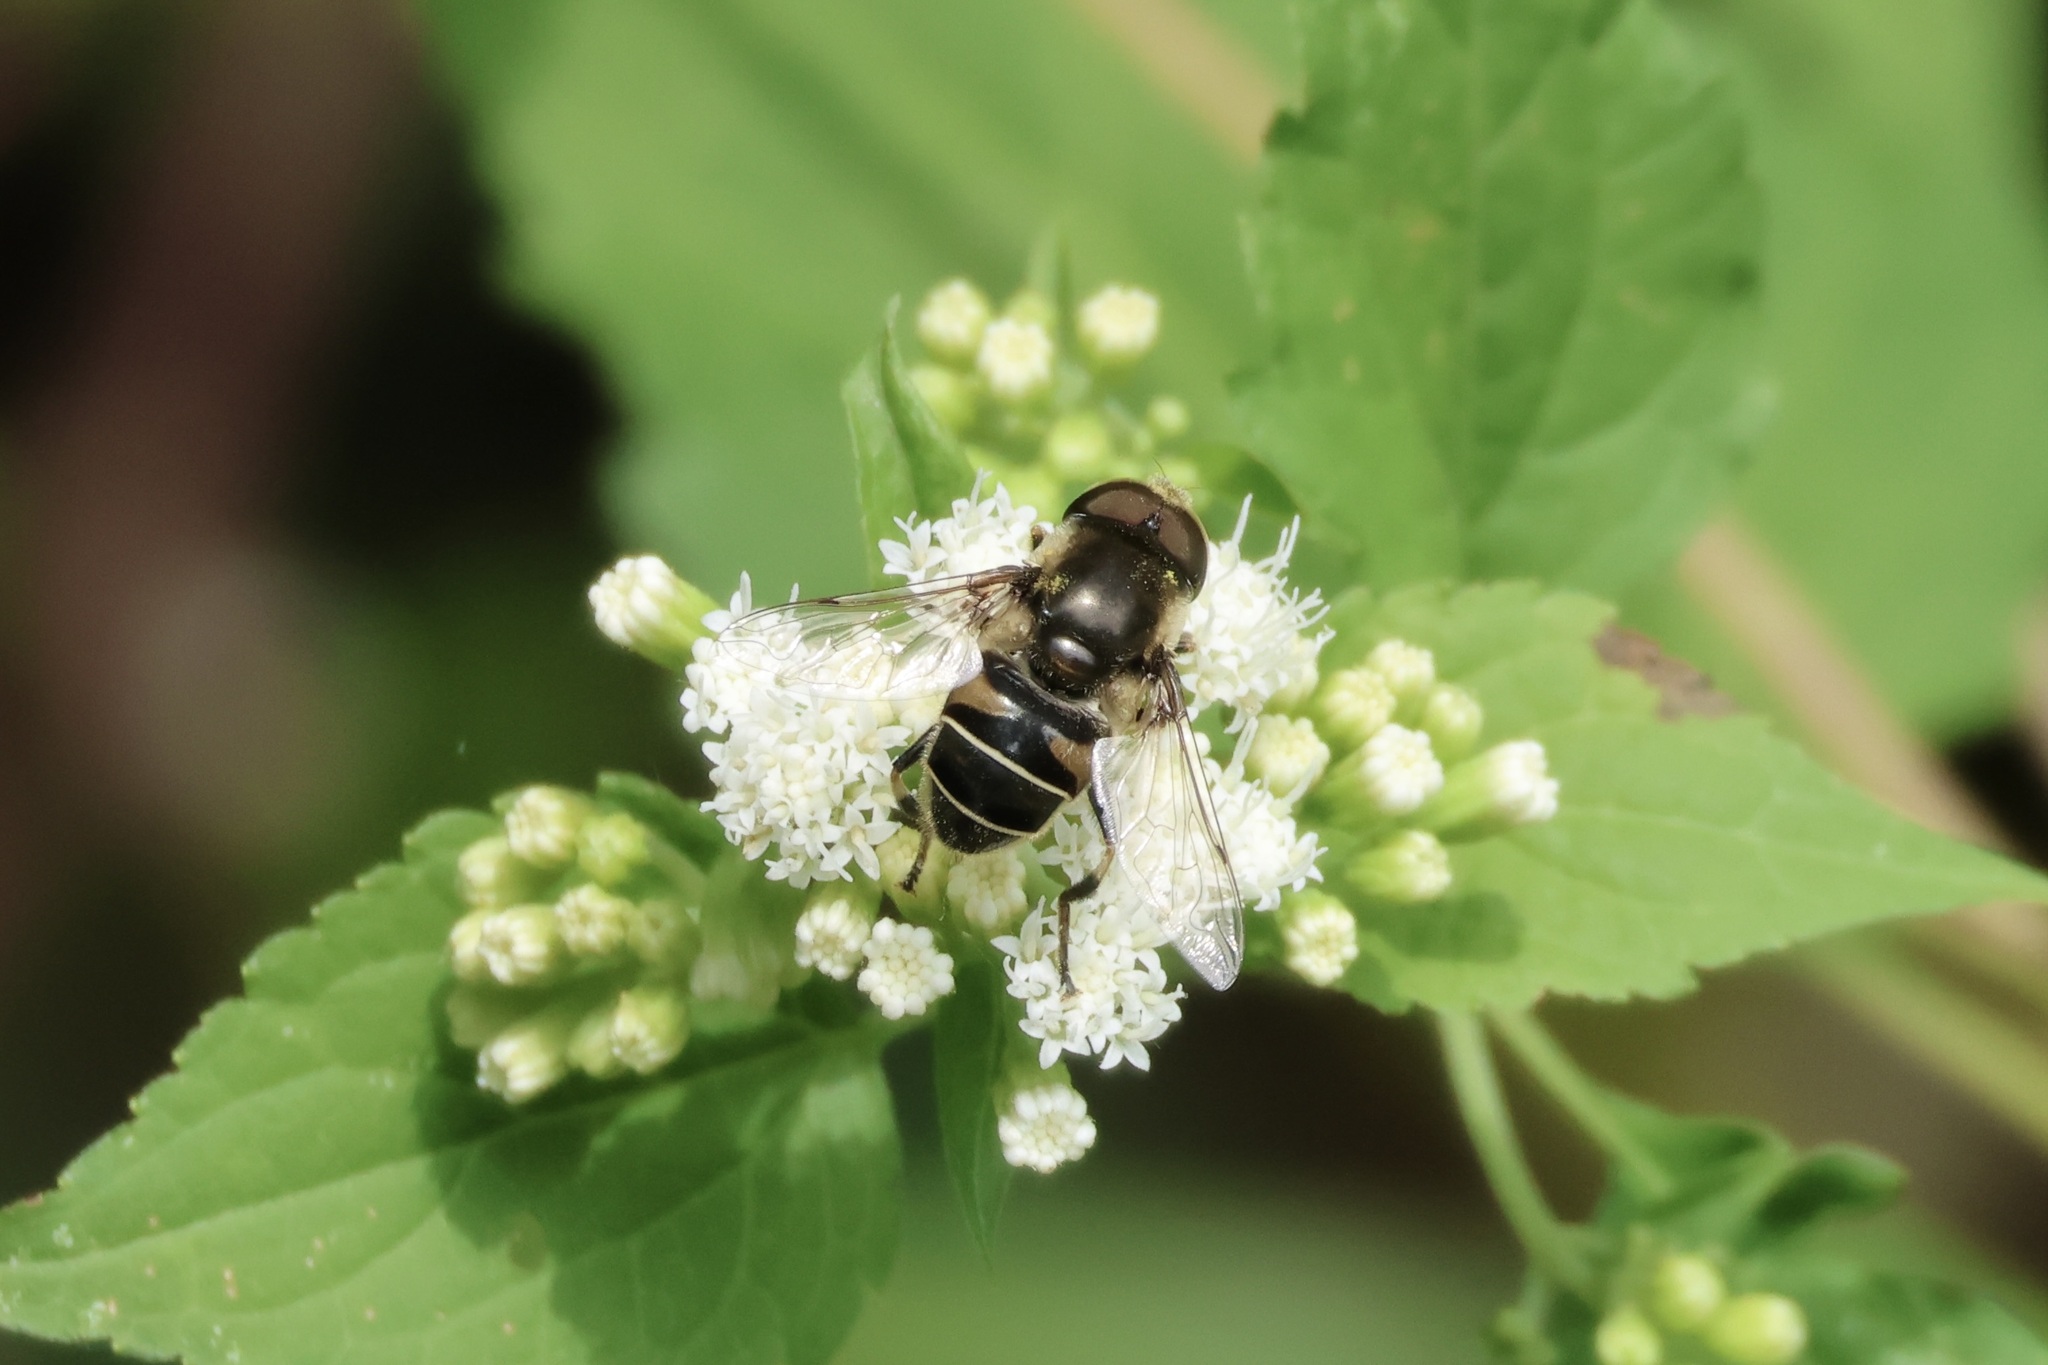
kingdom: Animalia
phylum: Arthropoda
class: Insecta
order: Diptera
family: Syrphidae
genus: Eristalis
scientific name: Eristalis dimidiata
